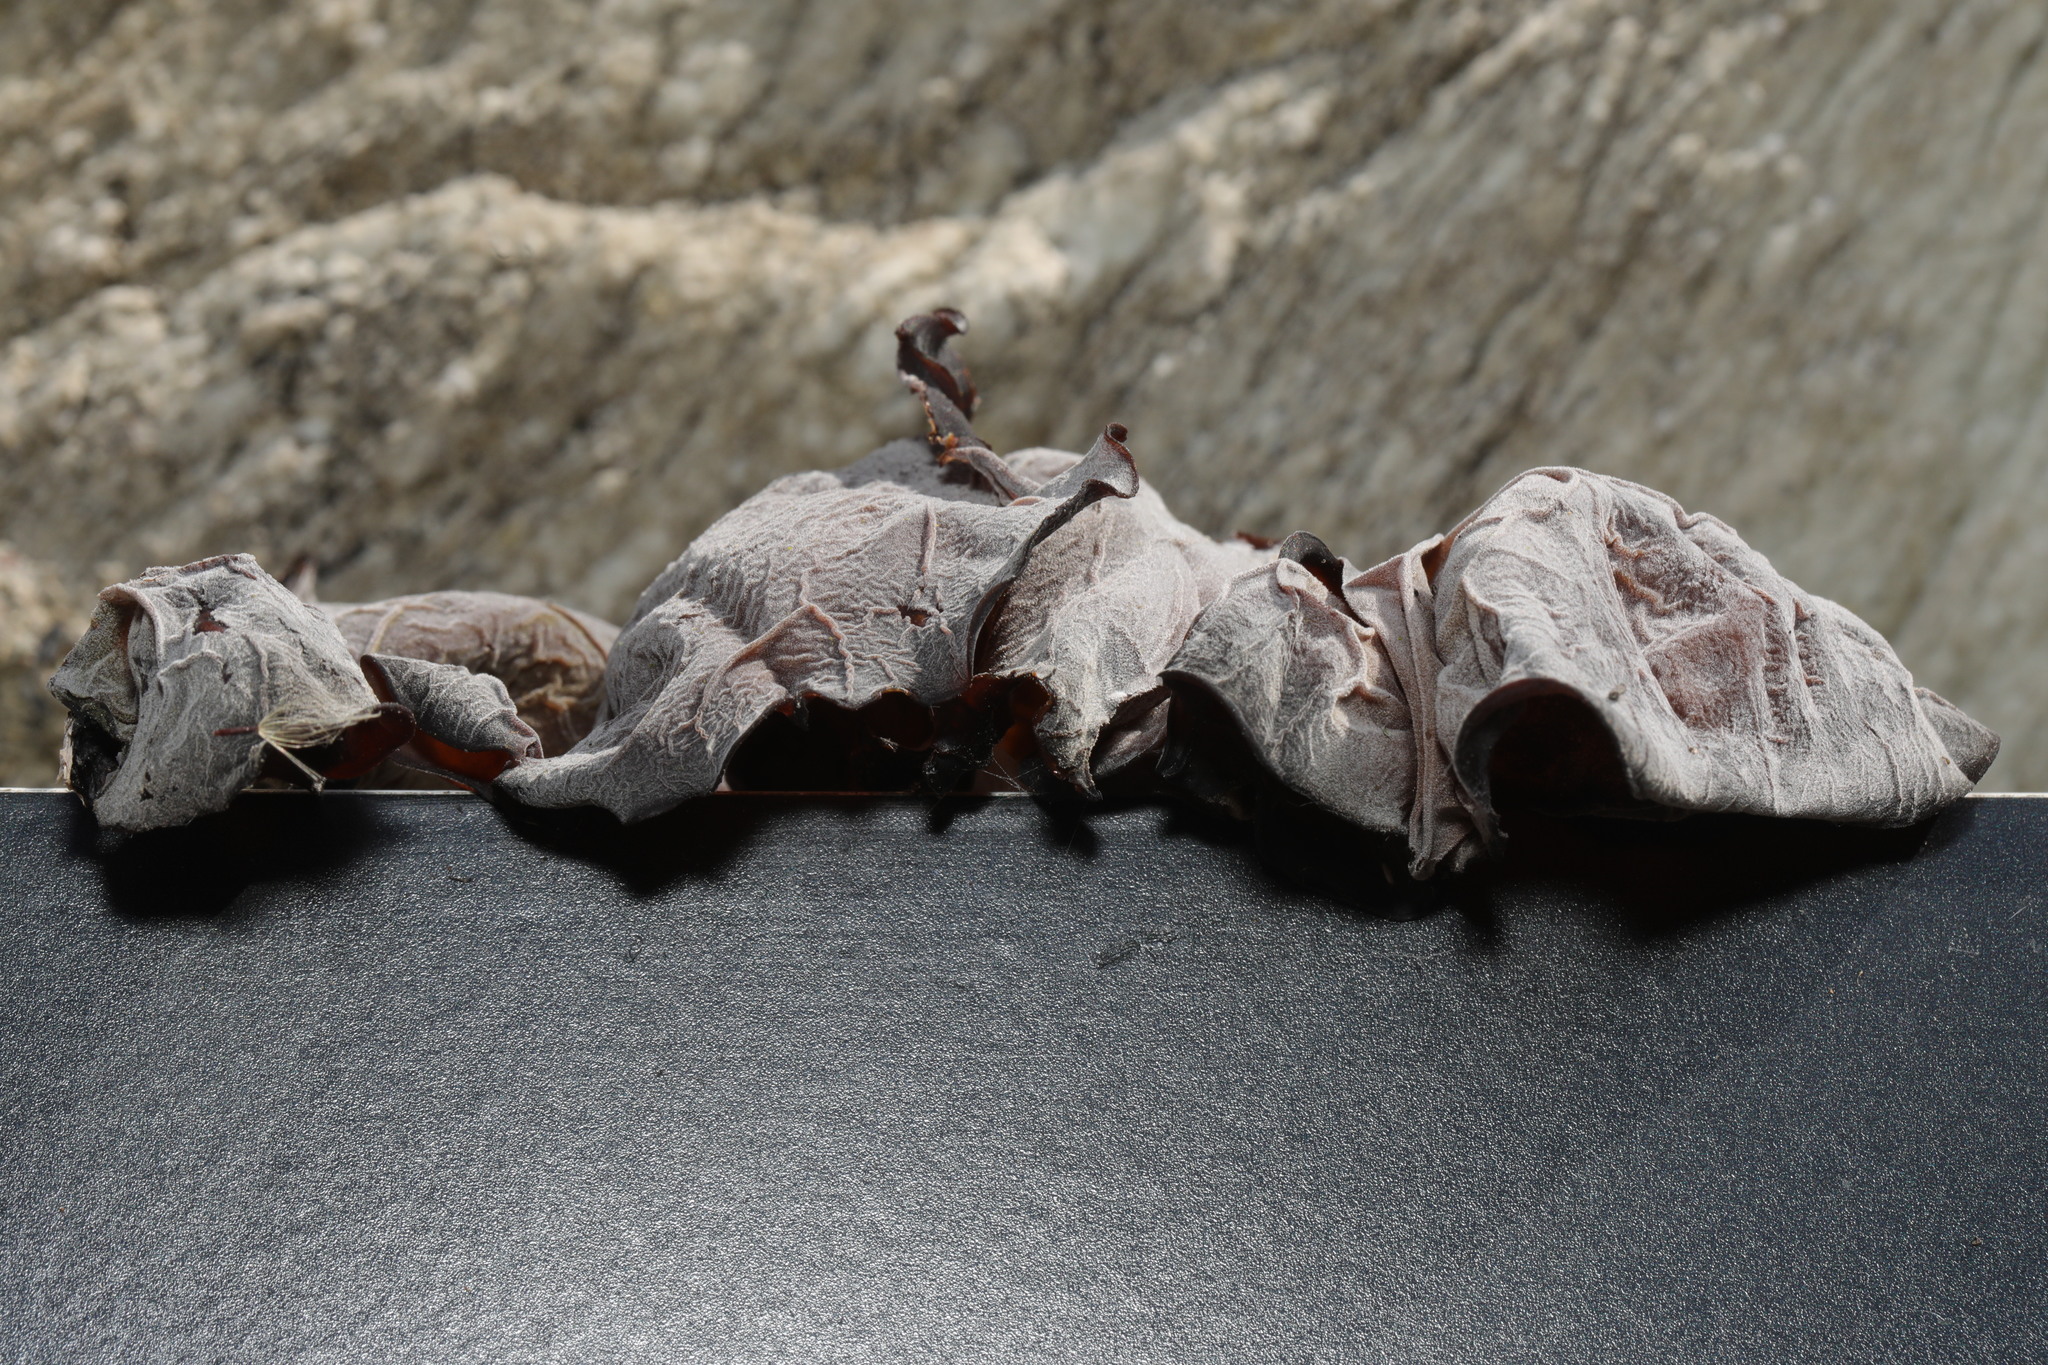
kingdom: Fungi
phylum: Basidiomycota
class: Agaricomycetes
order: Auriculariales
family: Auriculariaceae
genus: Auricularia
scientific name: Auricularia auricula-judae
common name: Jelly ear
